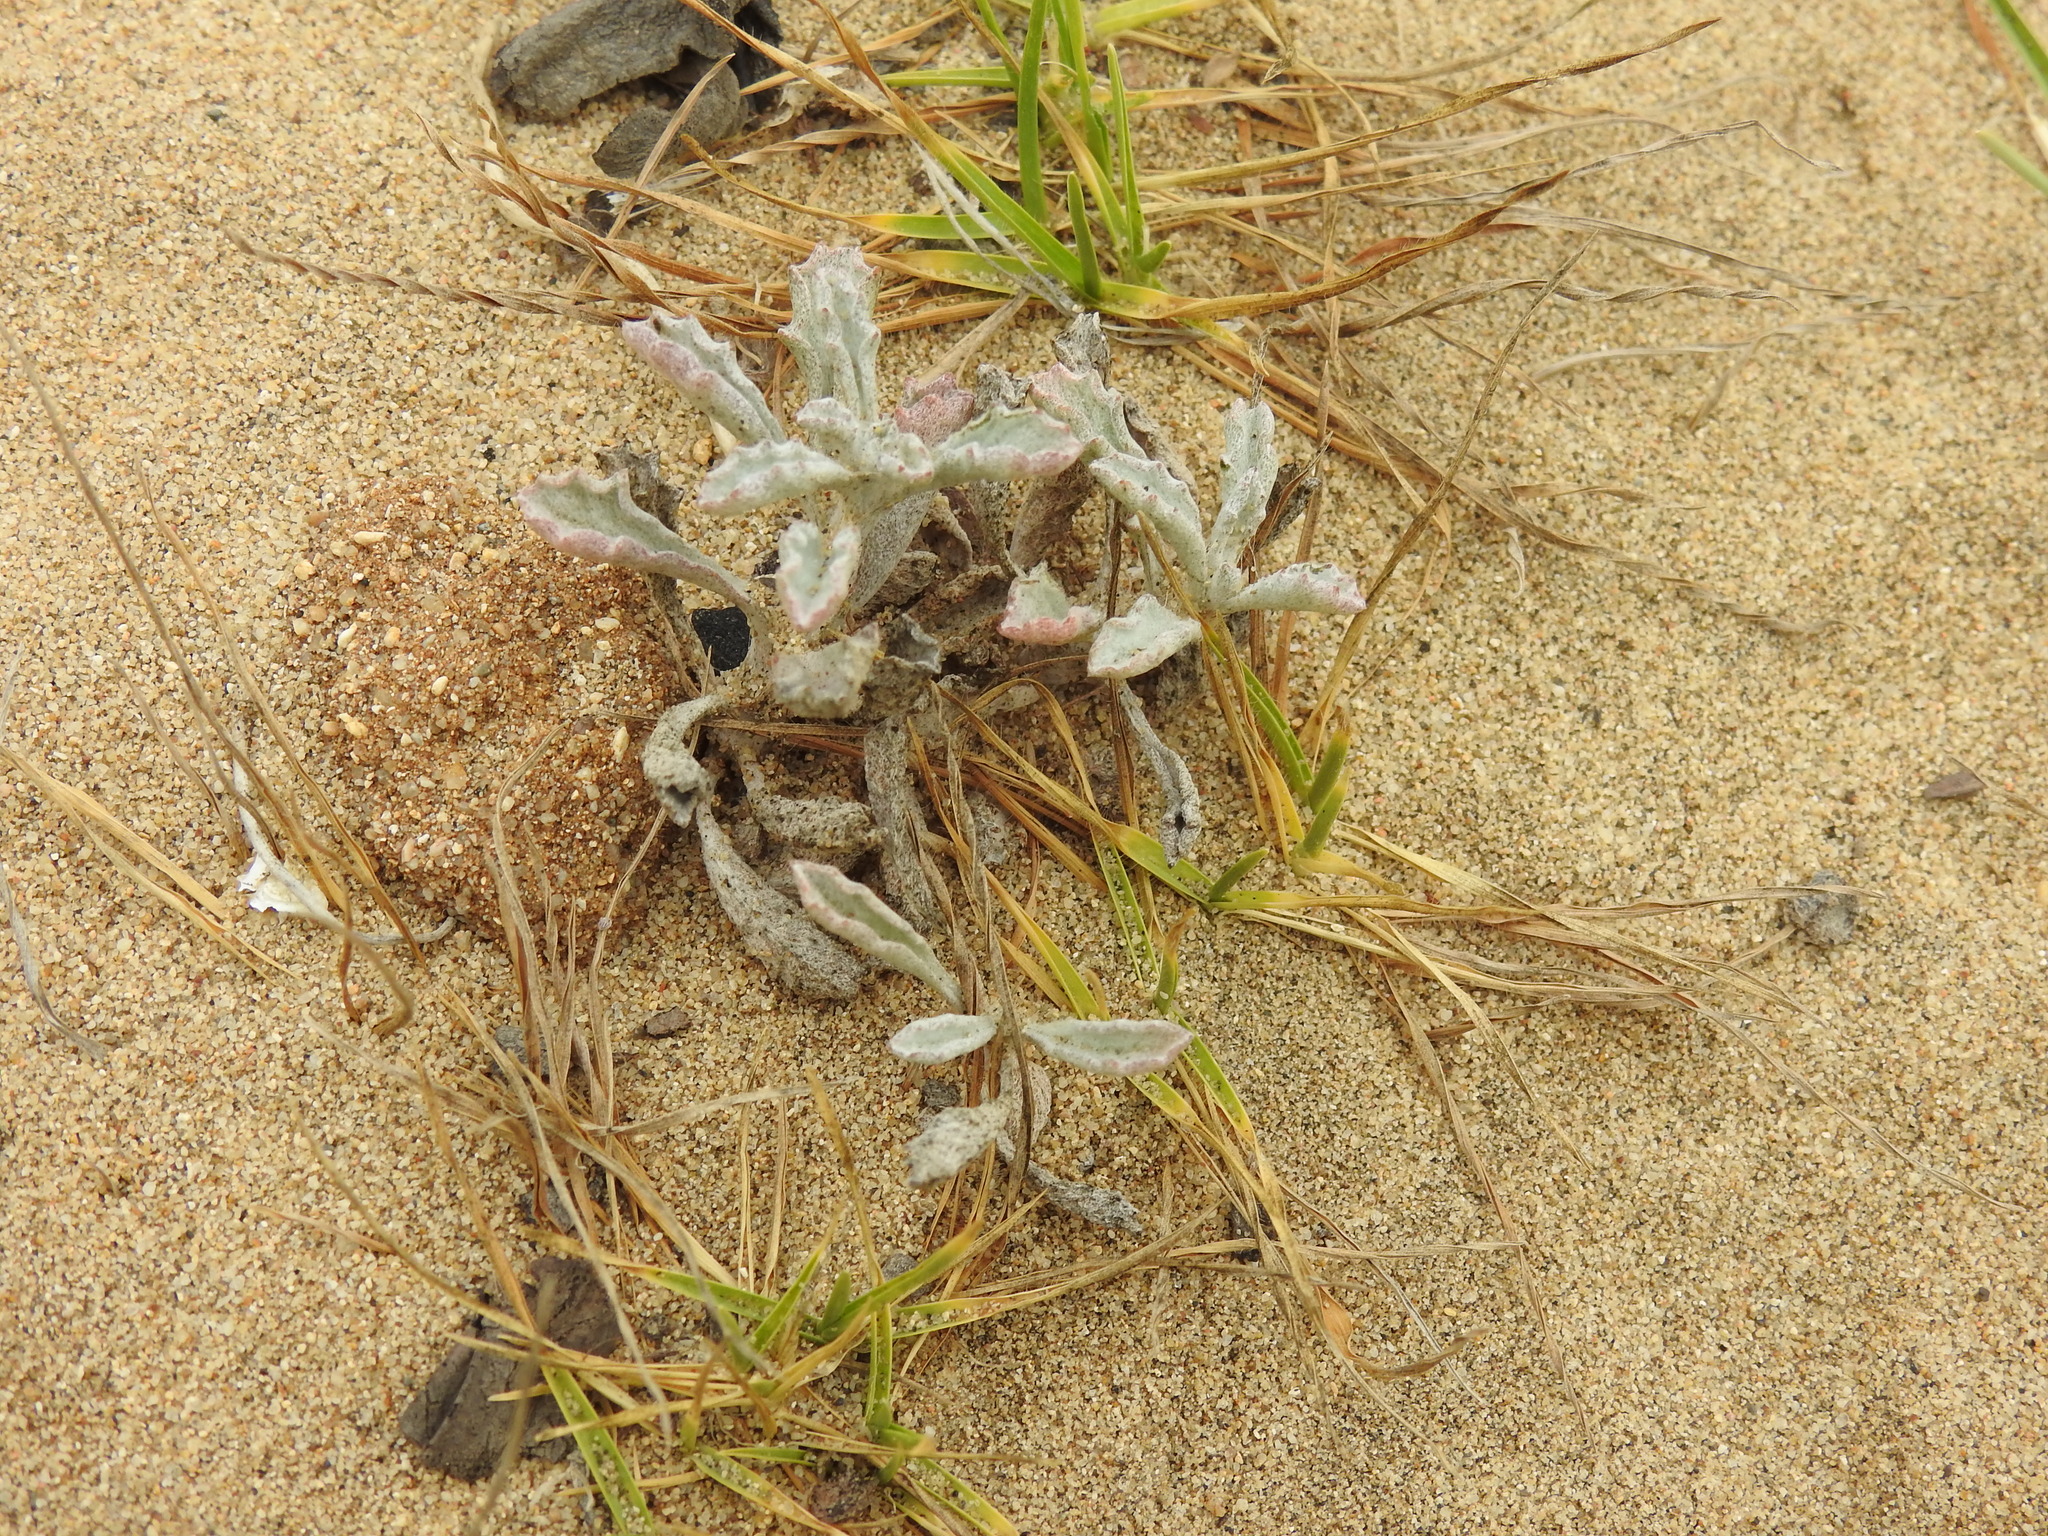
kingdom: Plantae
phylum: Tracheophyta
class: Magnoliopsida
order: Asterales
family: Asteraceae
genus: Corethrogyne
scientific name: Corethrogyne filaginifolia
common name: Sand-aster
